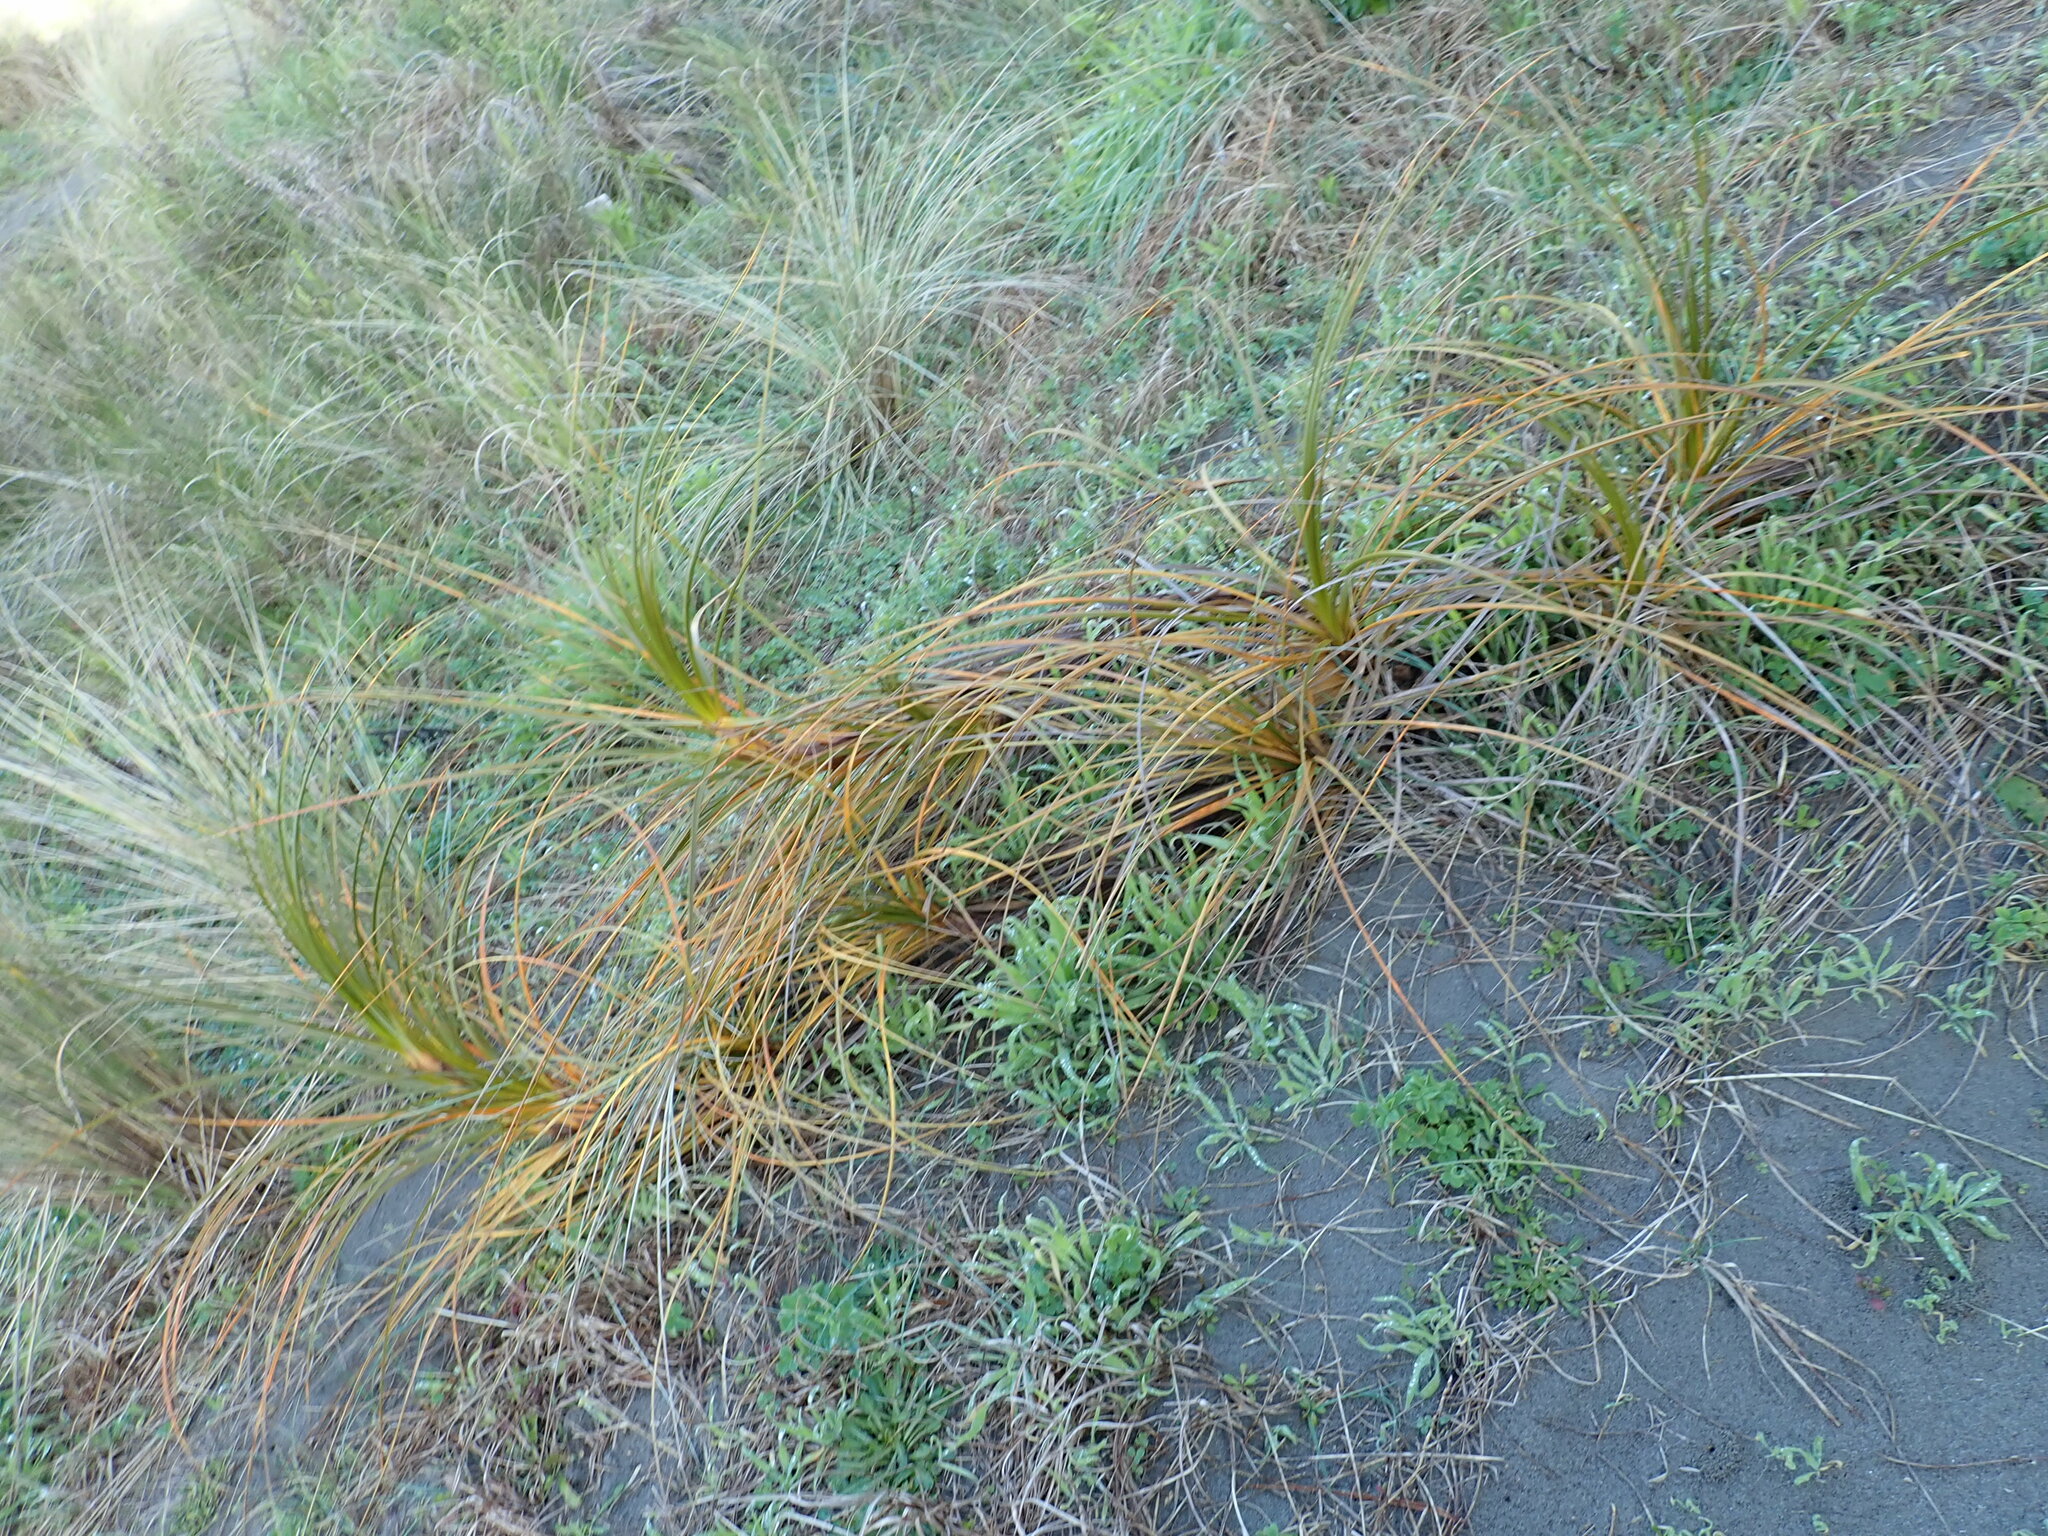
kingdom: Plantae
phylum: Tracheophyta
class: Liliopsida
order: Poales
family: Cyperaceae
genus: Ficinia
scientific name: Ficinia spiralis
